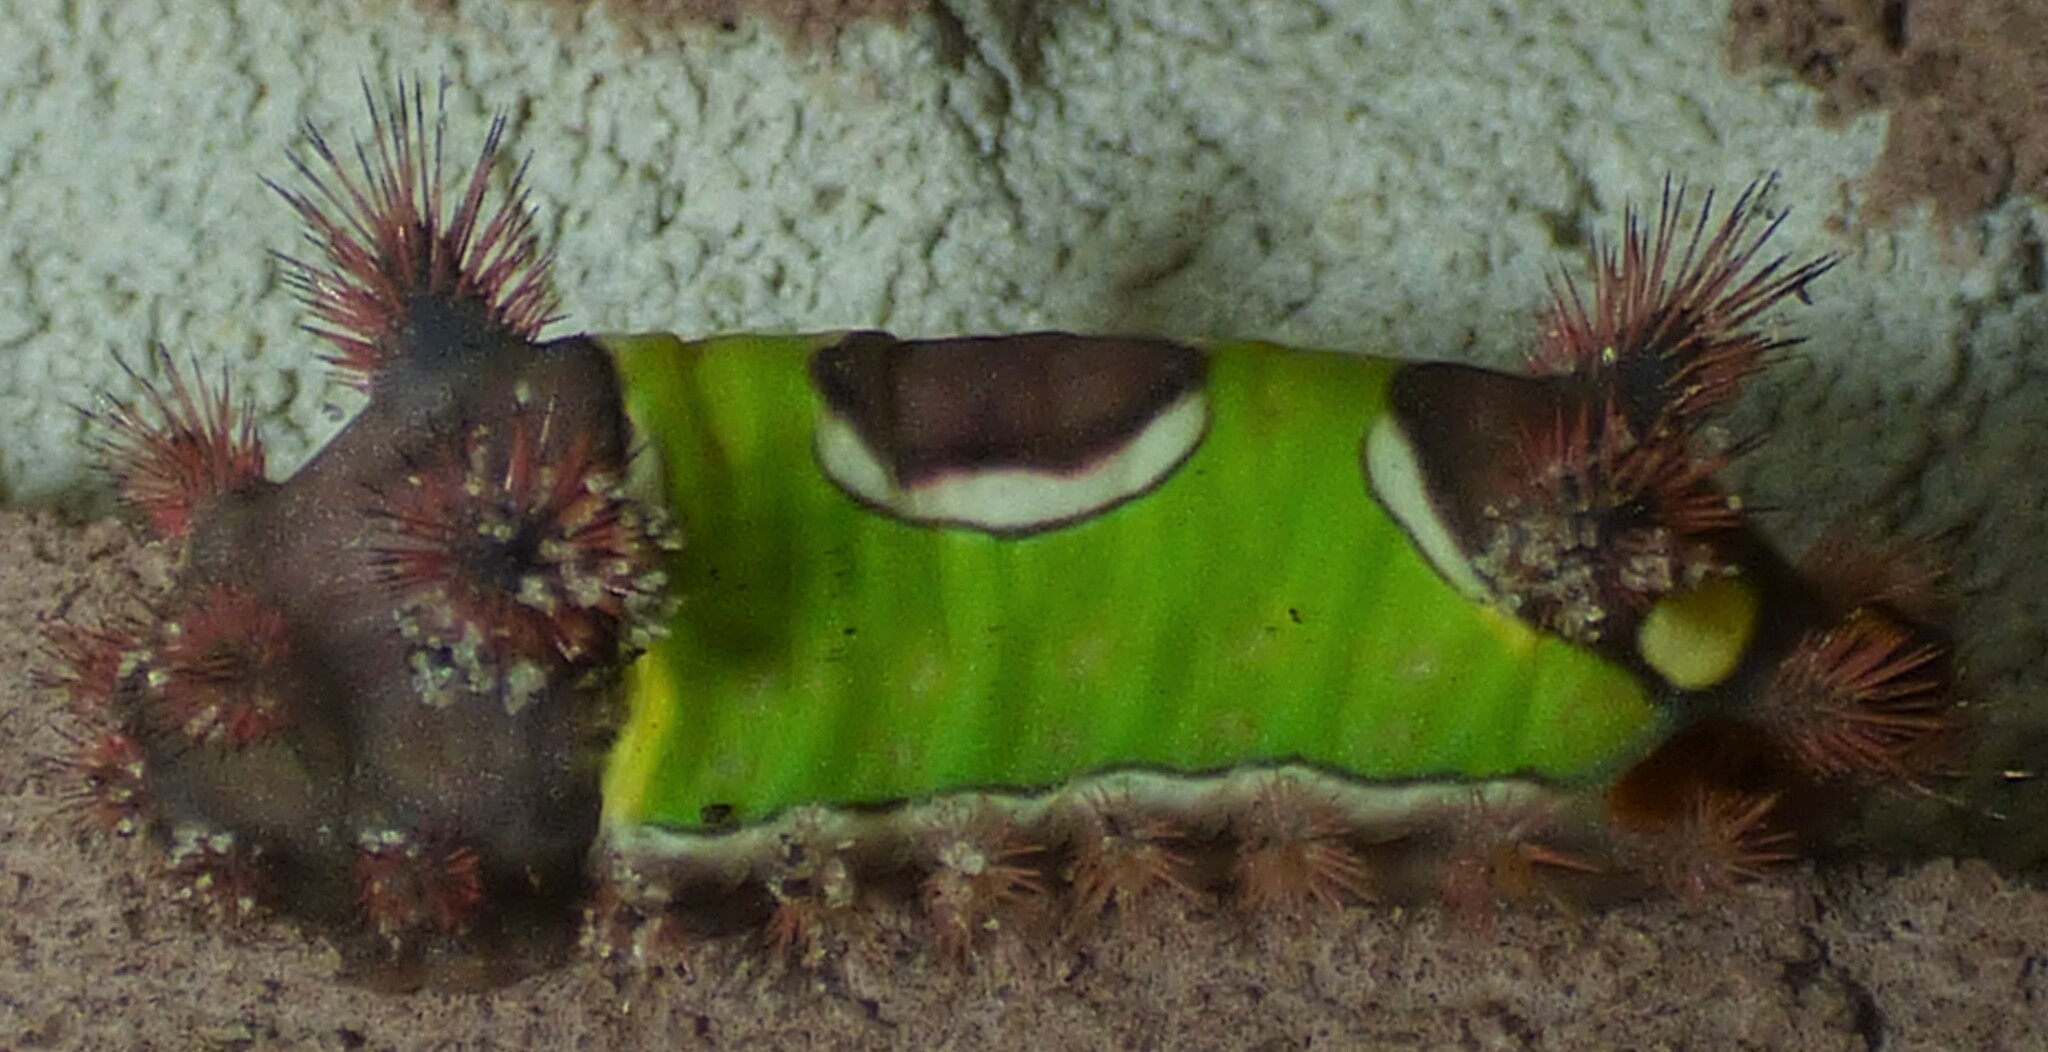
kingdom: Animalia
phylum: Arthropoda
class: Insecta
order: Lepidoptera
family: Limacodidae
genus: Acharia
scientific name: Acharia stimulea
